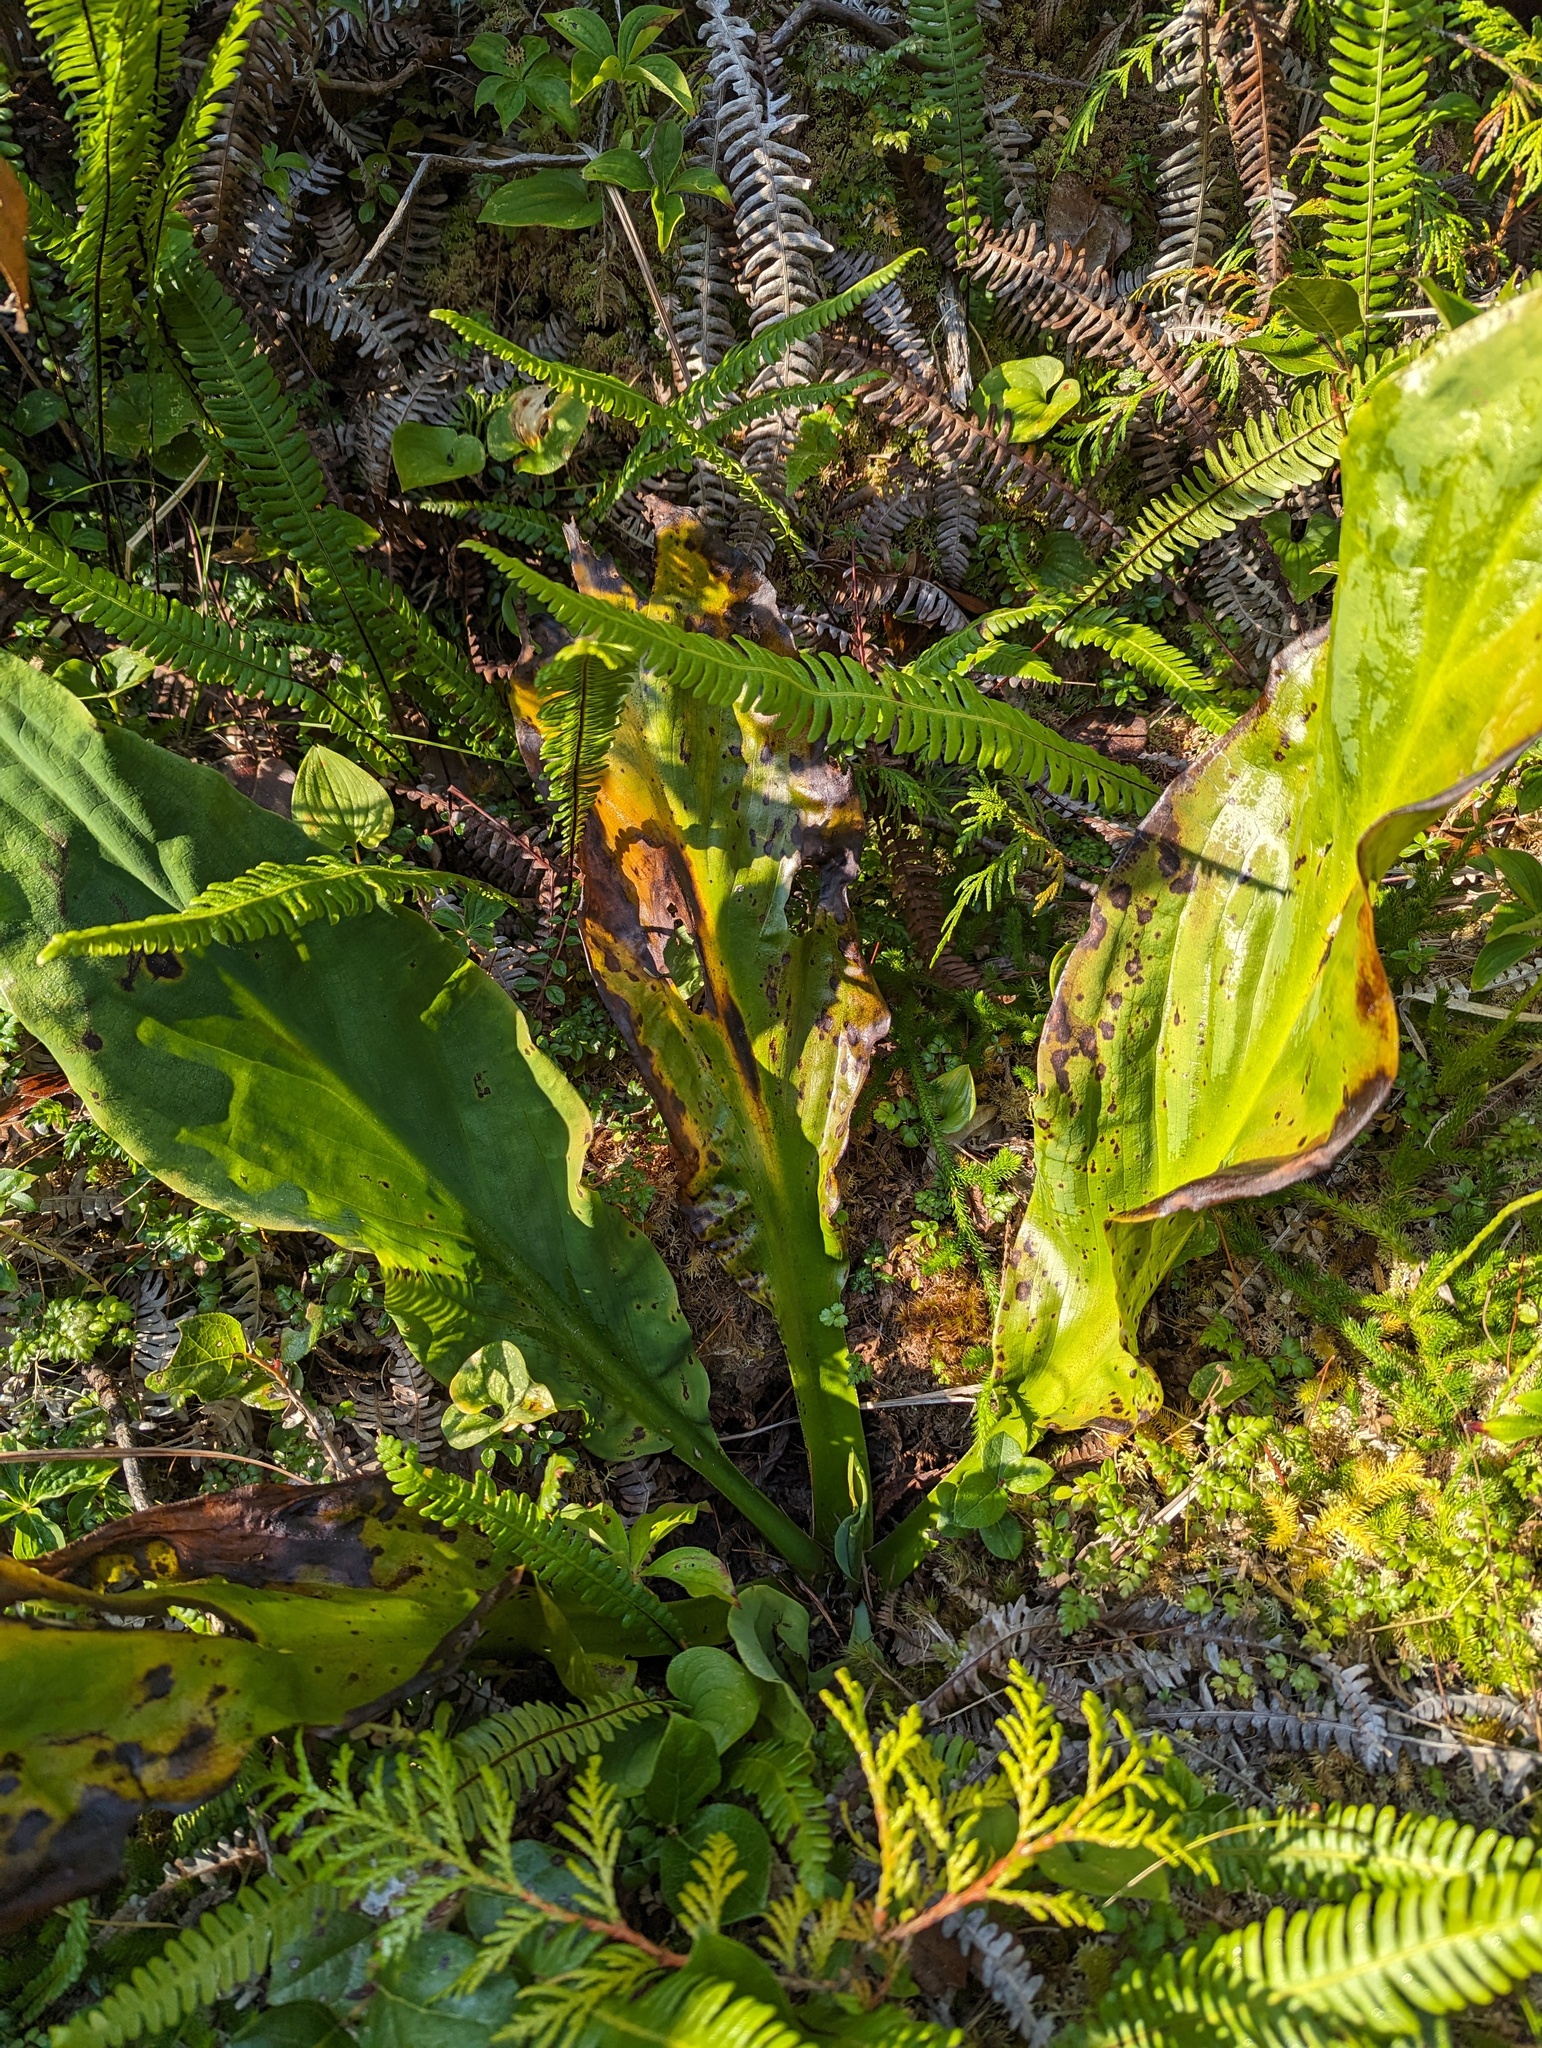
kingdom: Plantae
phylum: Tracheophyta
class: Liliopsida
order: Alismatales
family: Araceae
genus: Lysichiton
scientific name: Lysichiton americanus
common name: American skunk cabbage
